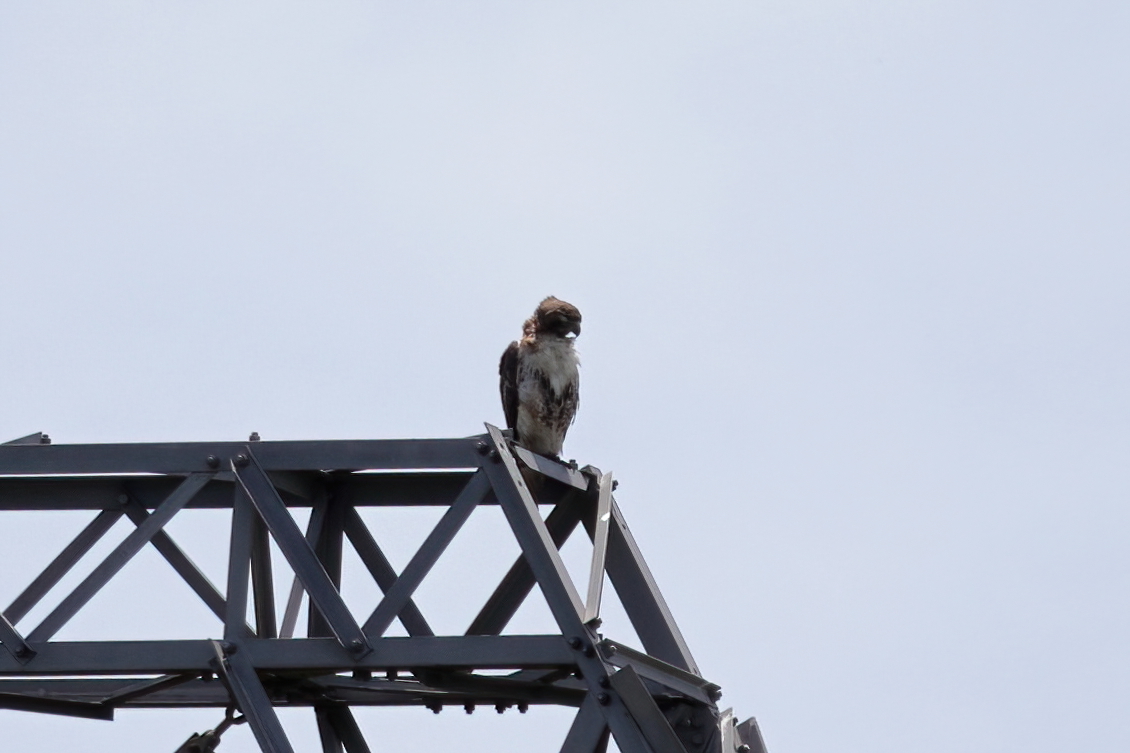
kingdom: Animalia
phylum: Chordata
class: Aves
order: Accipitriformes
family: Accipitridae
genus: Buteo
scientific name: Buteo jamaicensis
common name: Red-tailed hawk
